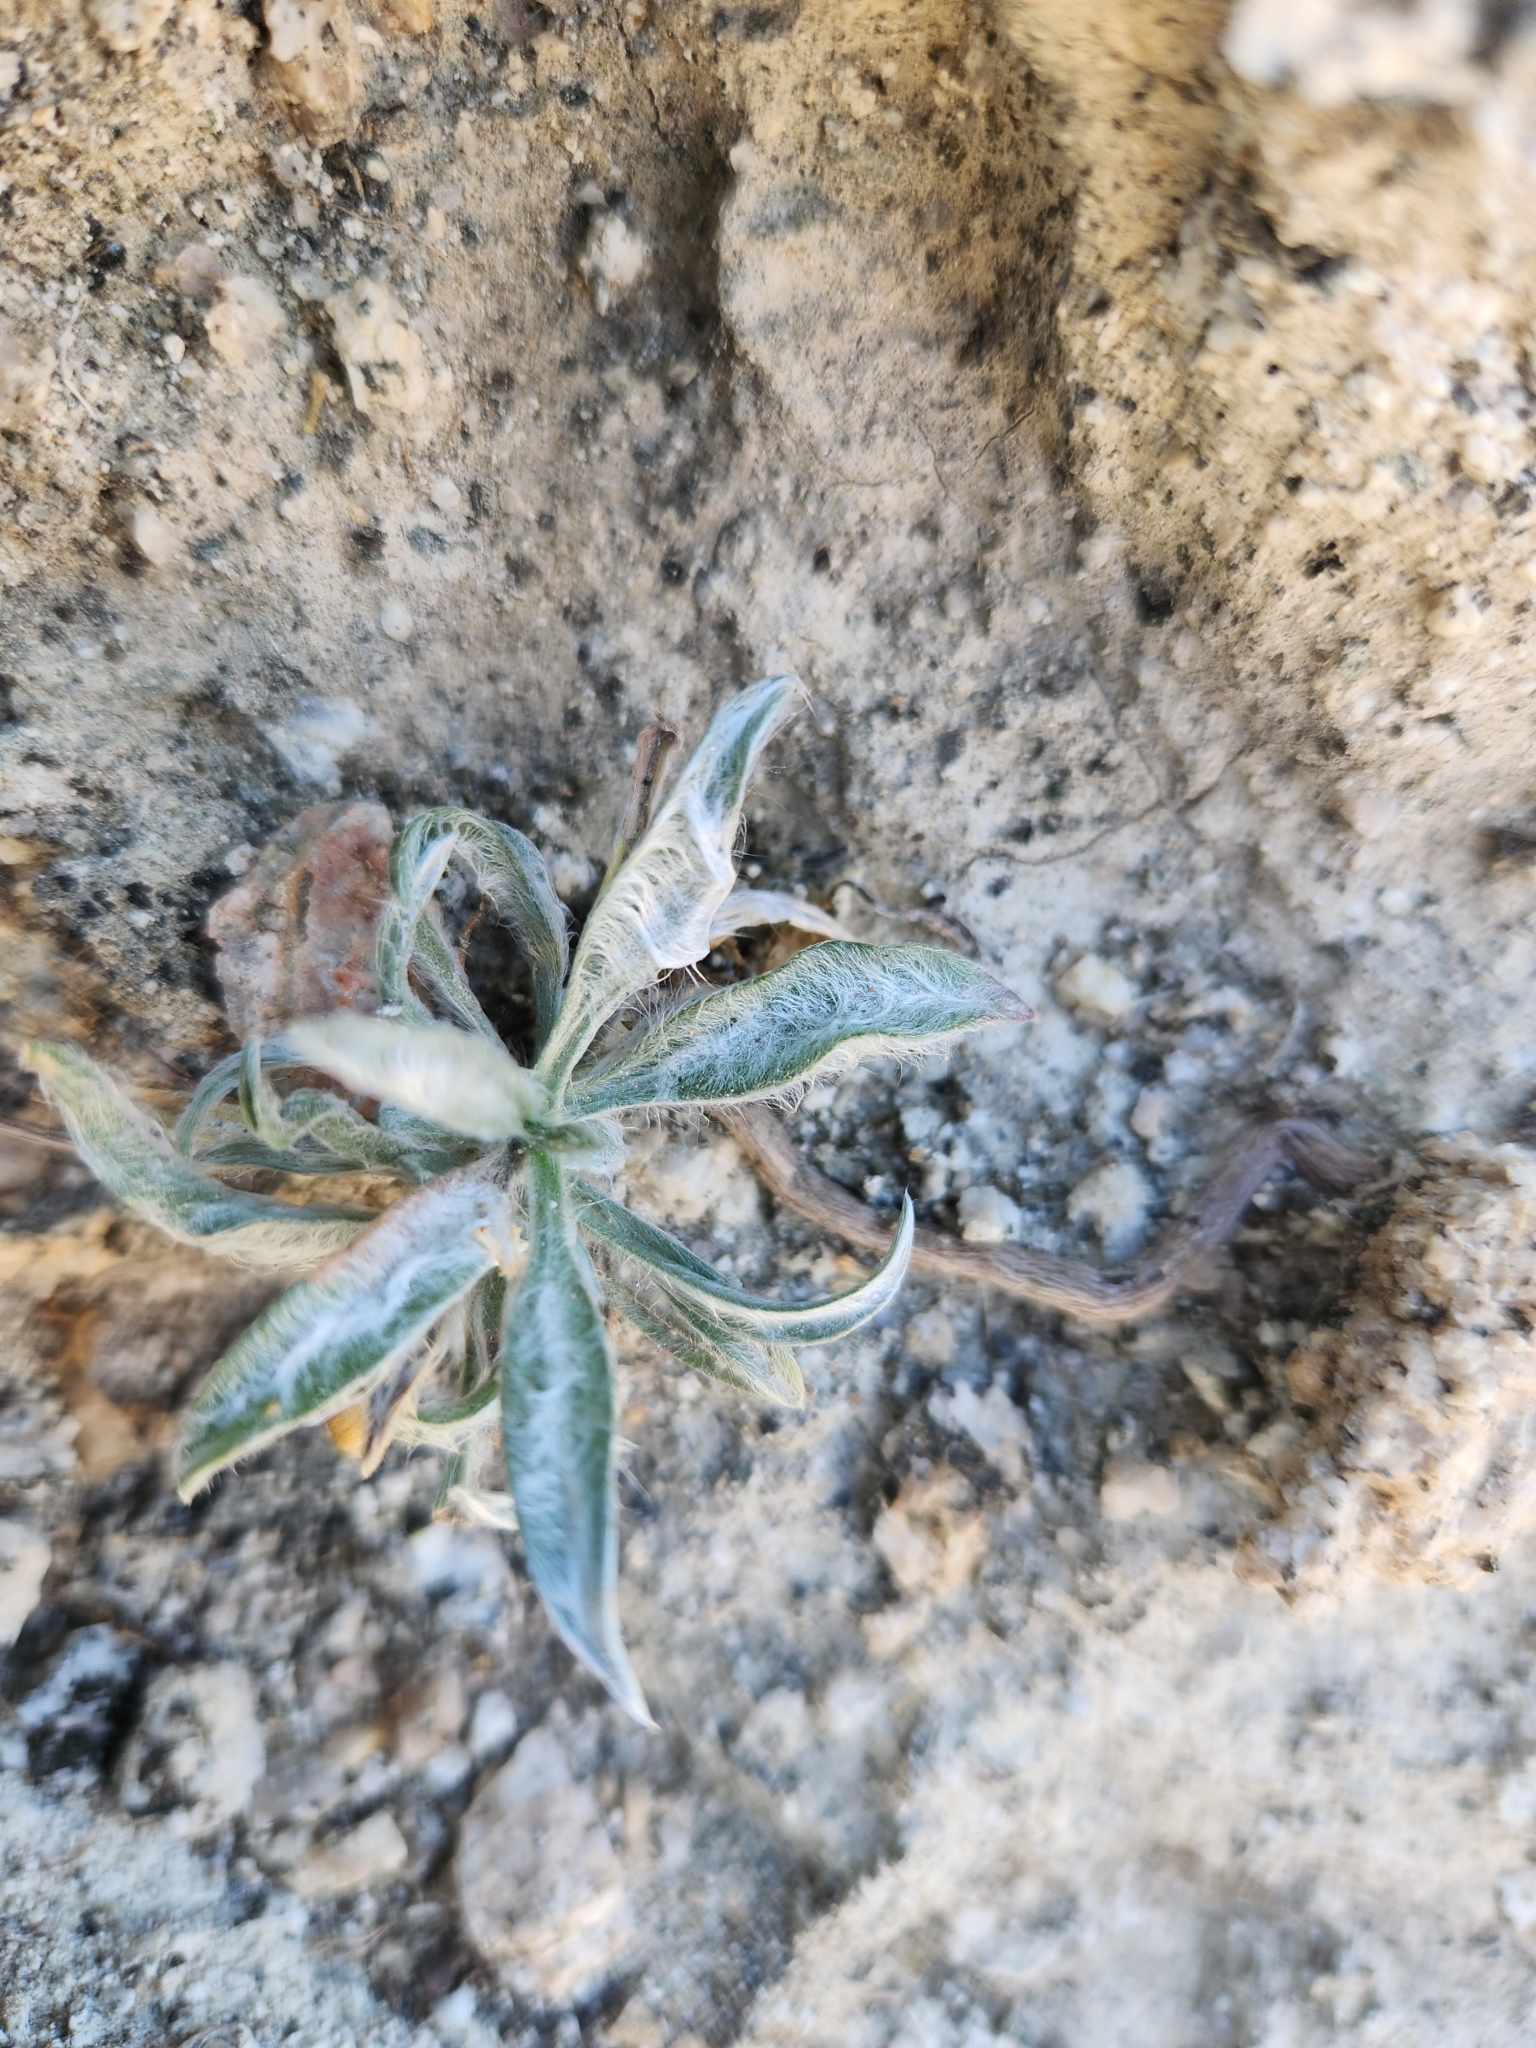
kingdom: Plantae
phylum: Tracheophyta
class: Magnoliopsida
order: Lamiales
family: Plantaginaceae
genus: Plantago
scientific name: Plantago ovata
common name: Blond plantain
